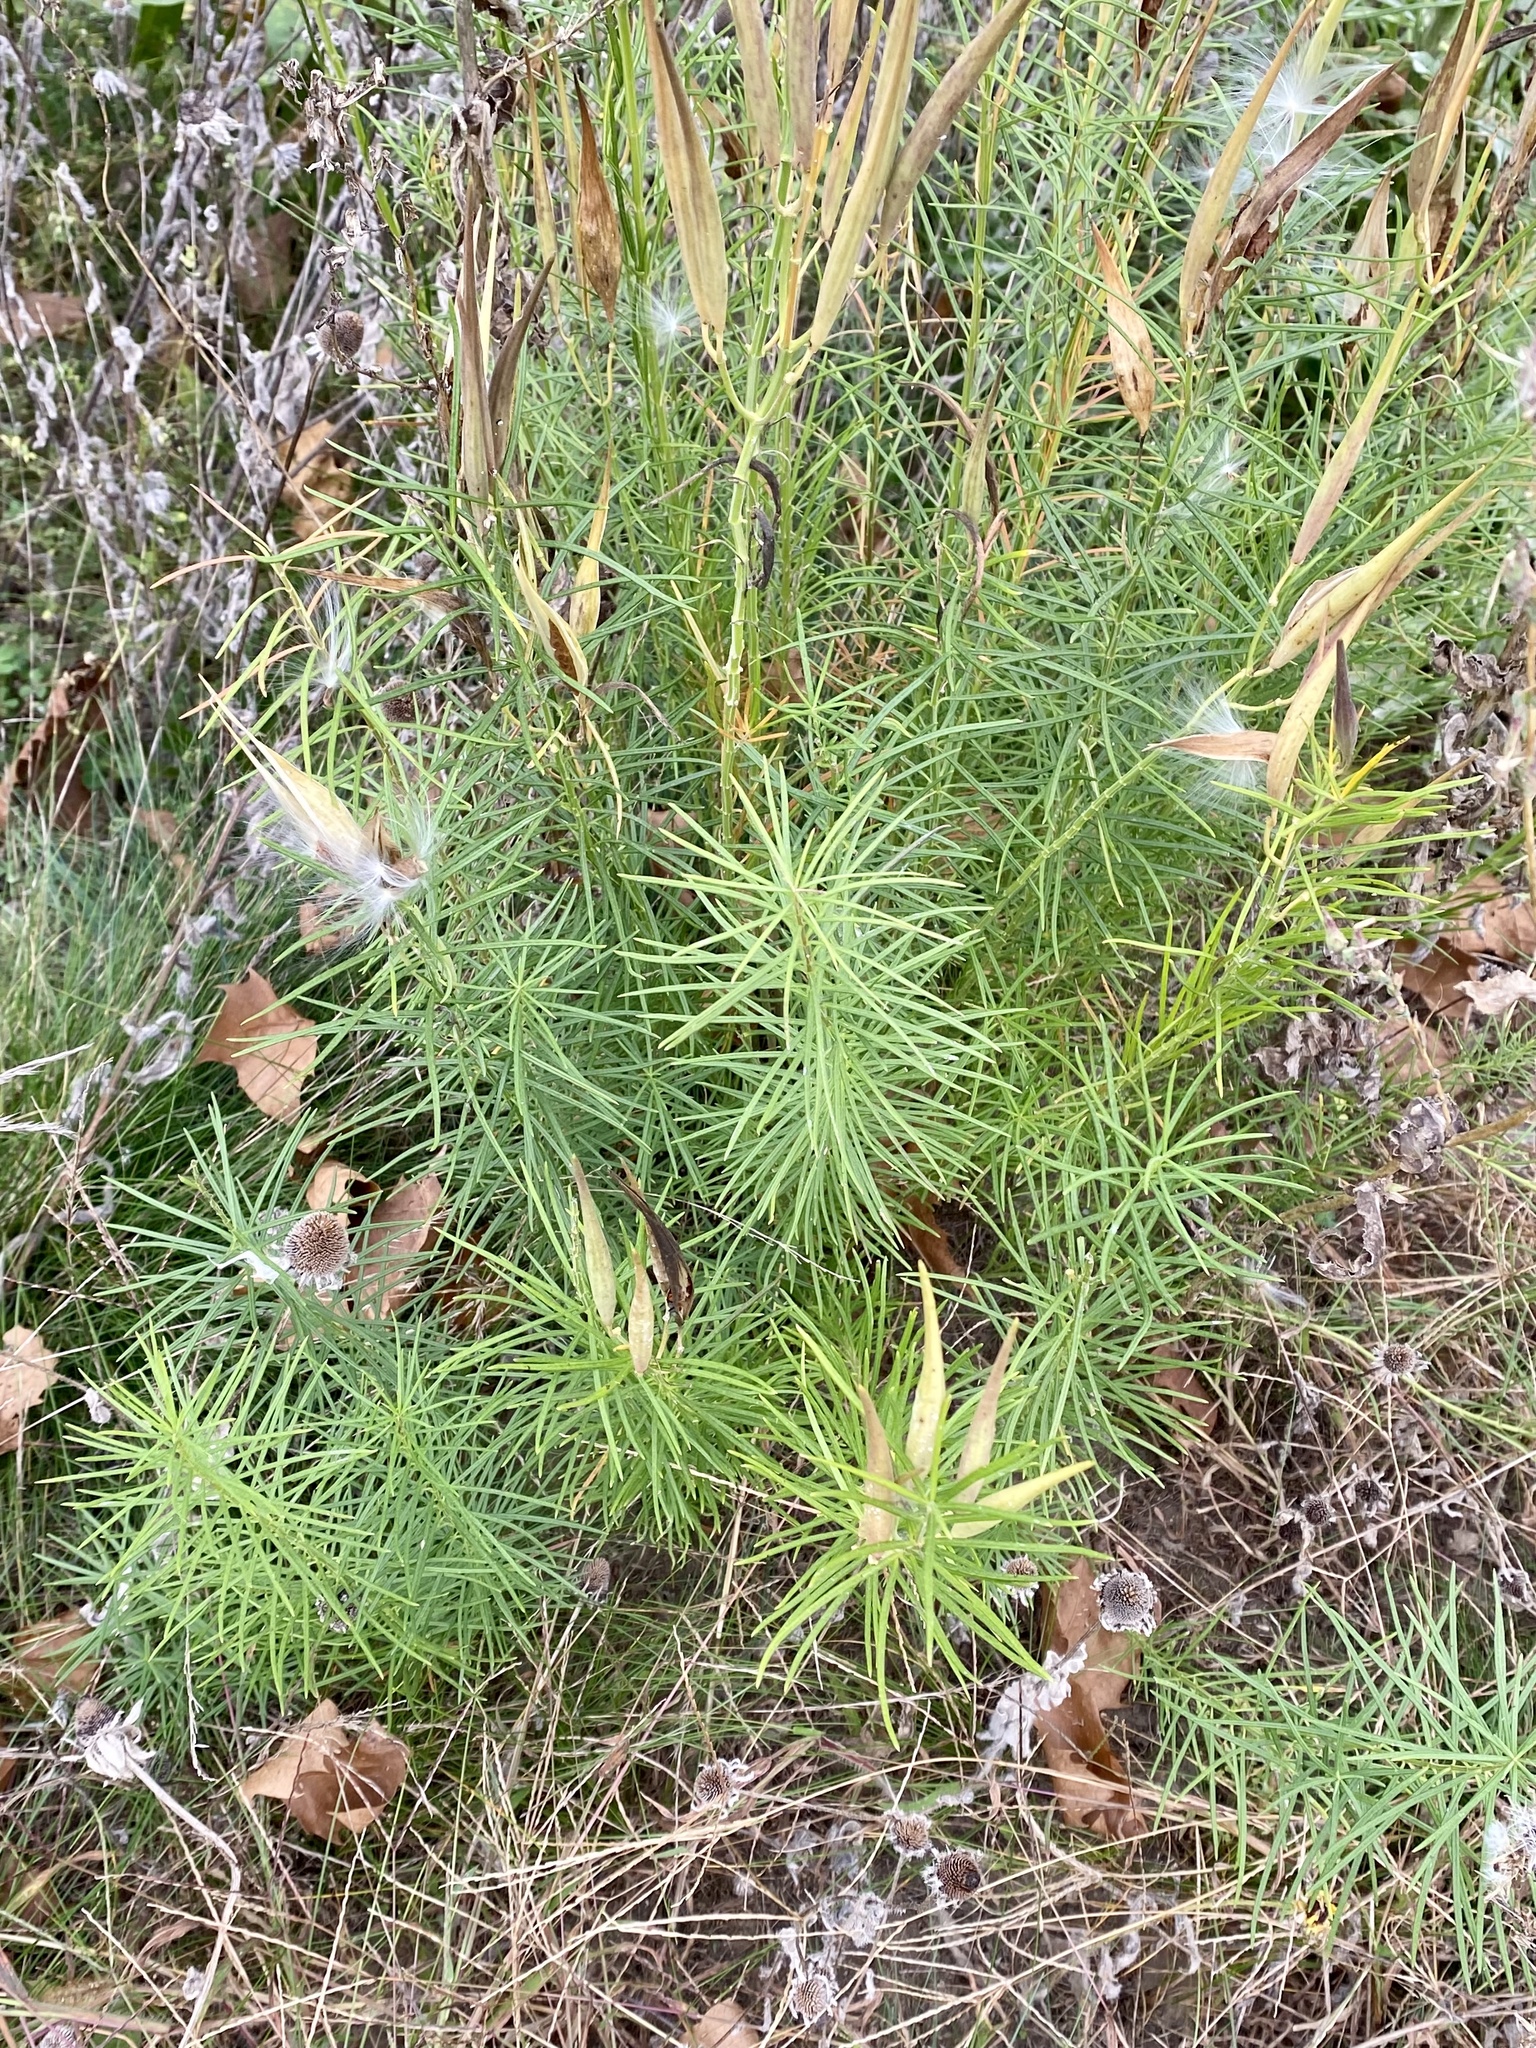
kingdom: Plantae
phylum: Tracheophyta
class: Magnoliopsida
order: Gentianales
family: Apocynaceae
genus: Asclepias
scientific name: Asclepias verticillata
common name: Eastern whorled milkweed
